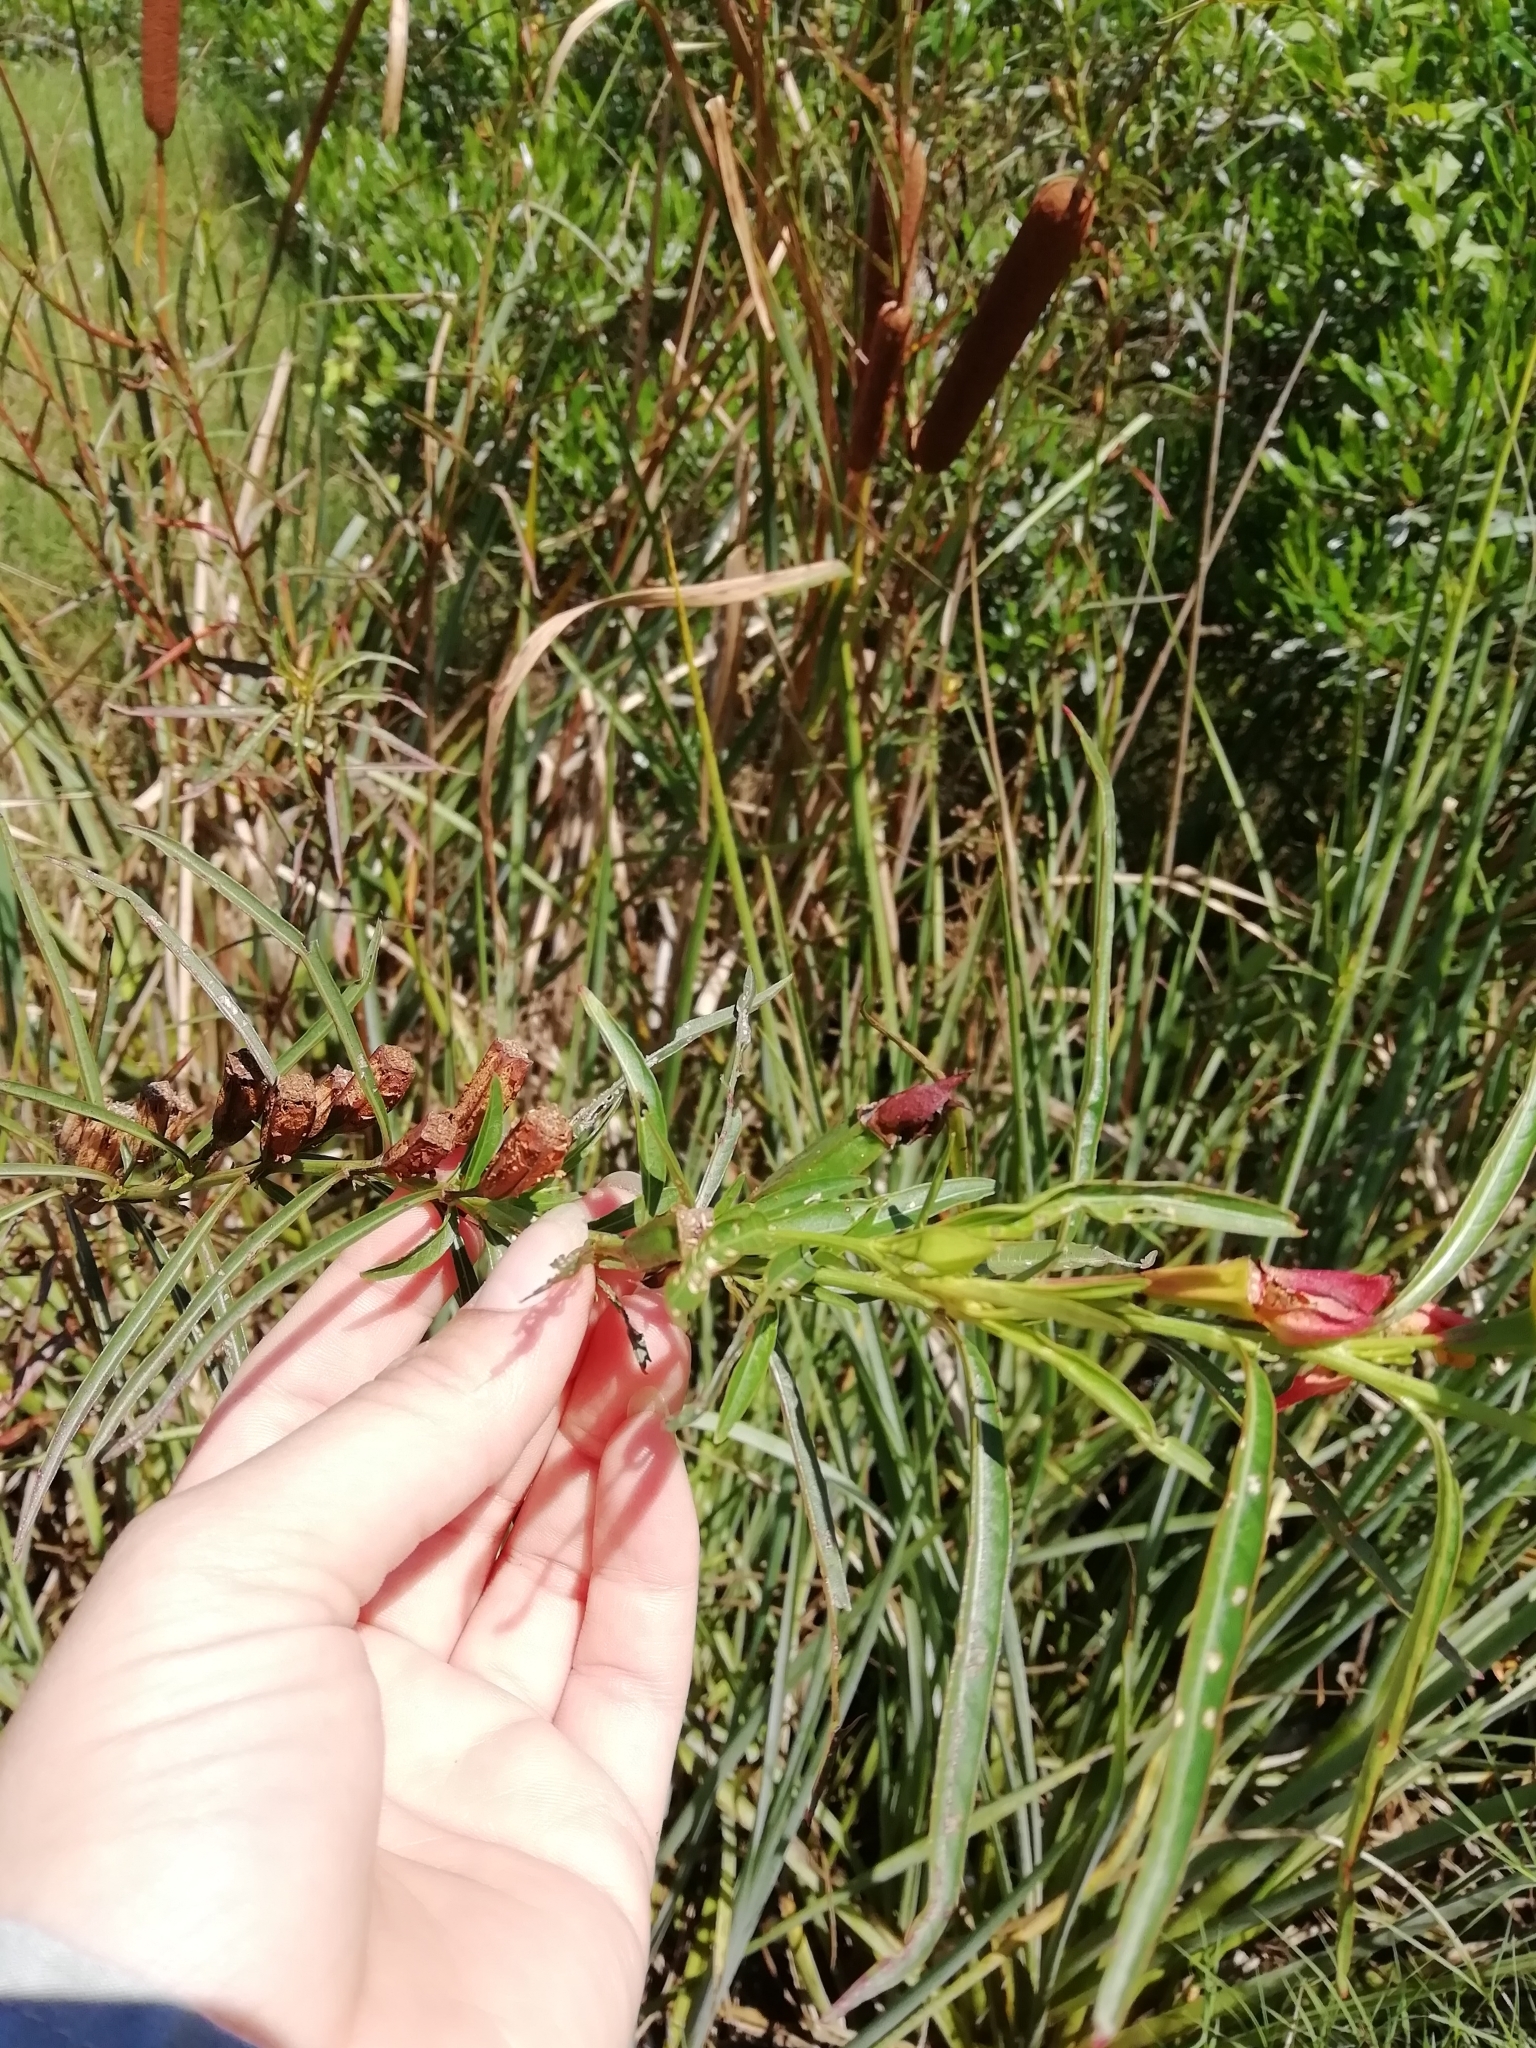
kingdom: Plantae
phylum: Tracheophyta
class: Magnoliopsida
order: Myrtales
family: Onagraceae
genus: Ludwigia
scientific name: Ludwigia longifolia
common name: Longleaf primrose-willow
